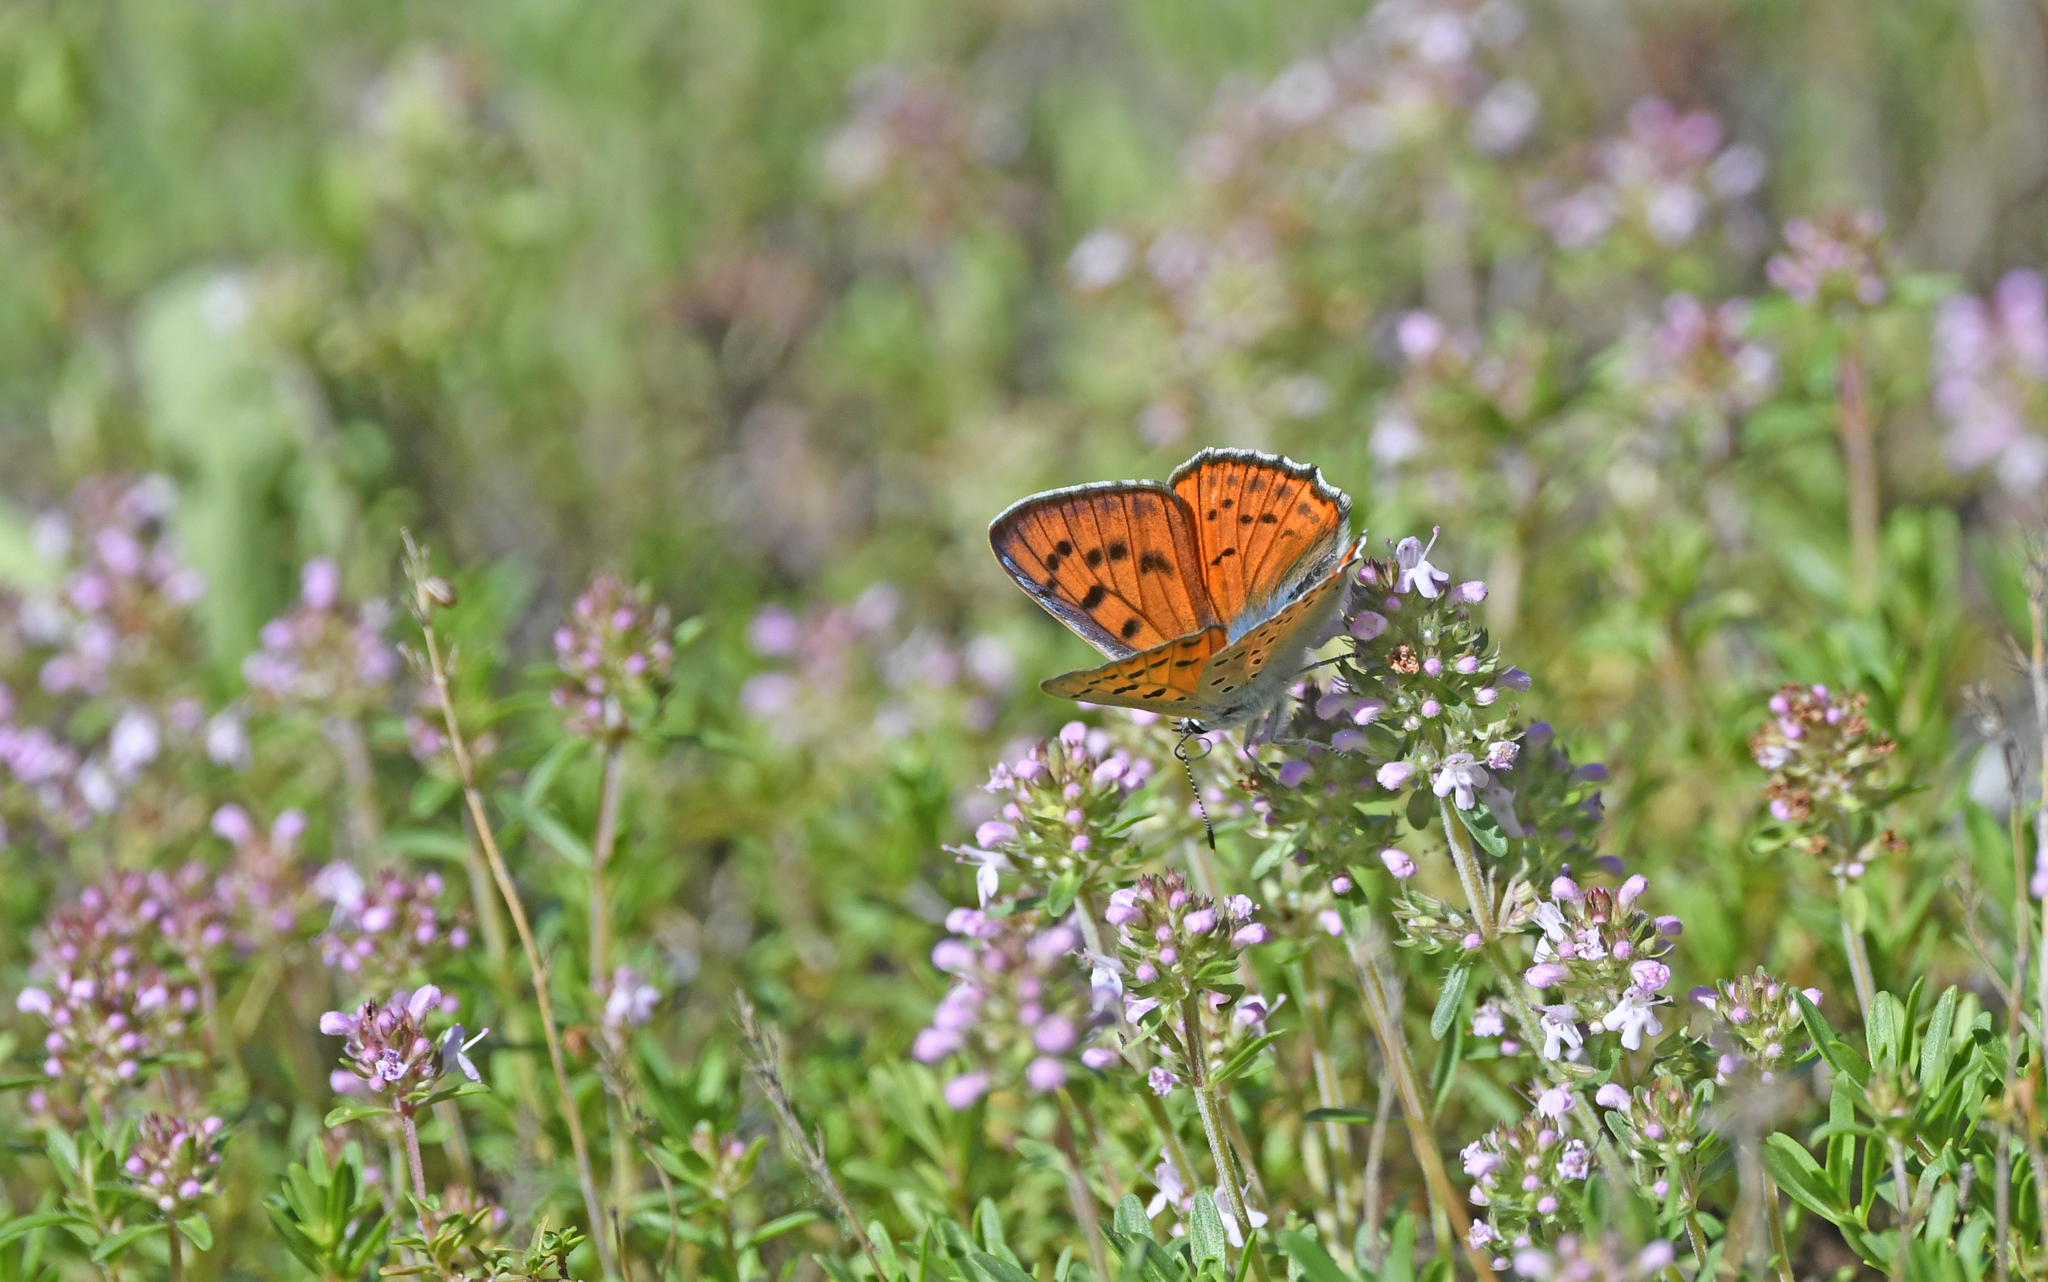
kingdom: Animalia
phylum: Arthropoda
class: Insecta
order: Lepidoptera
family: Lycaenidae
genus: Lycaena
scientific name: Lycaena alciphron
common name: Purple-shot copper
